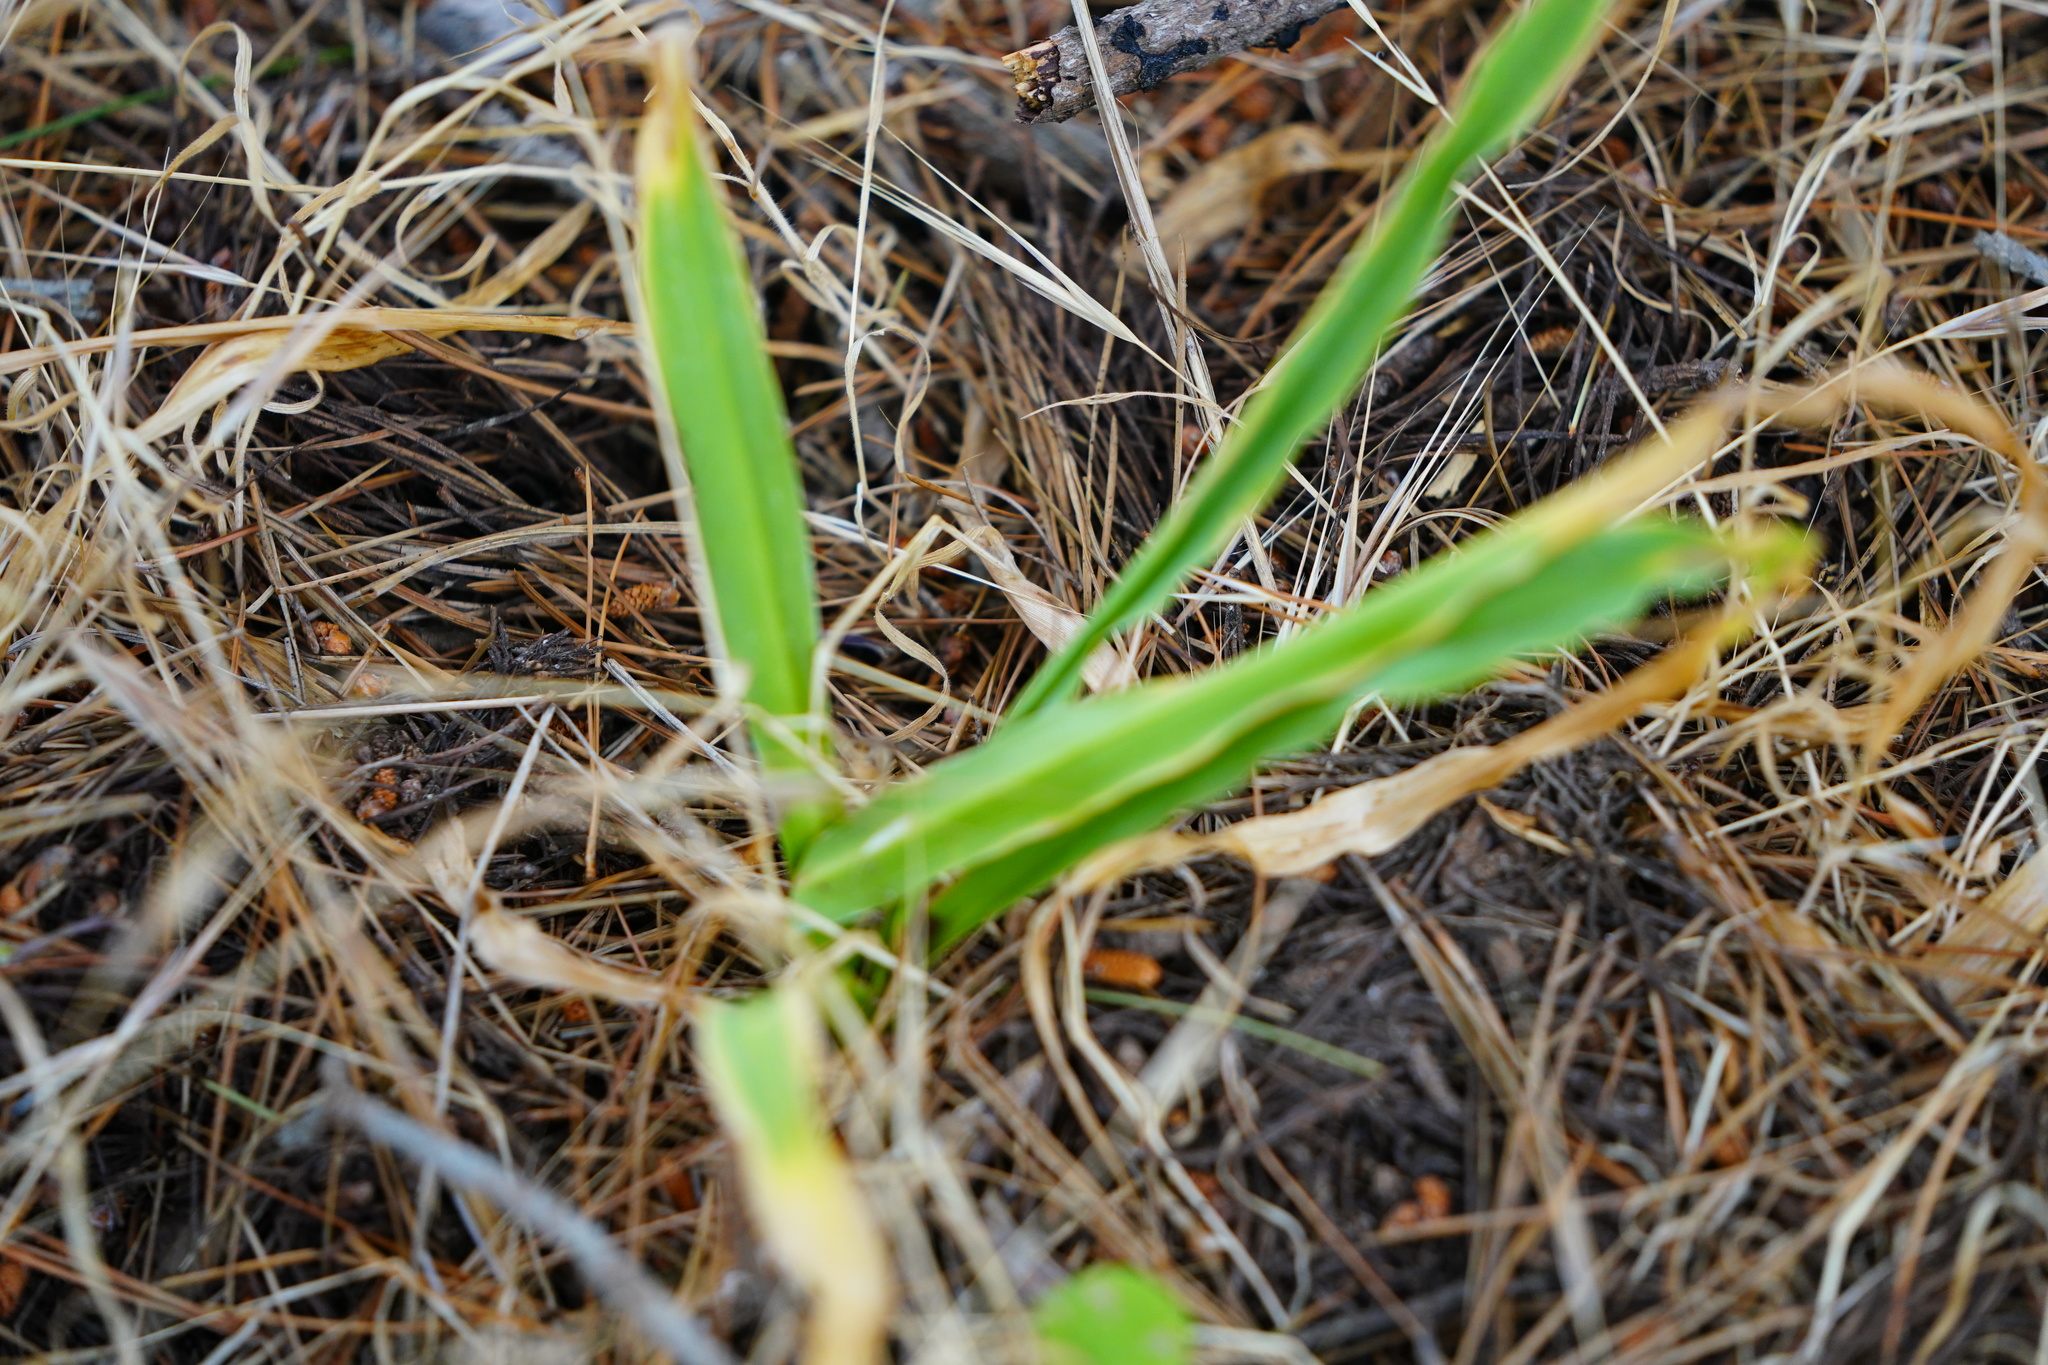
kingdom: Plantae
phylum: Tracheophyta
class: Liliopsida
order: Asparagales
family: Asparagaceae
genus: Chlorogalum
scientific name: Chlorogalum pomeridianum
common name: Amole
